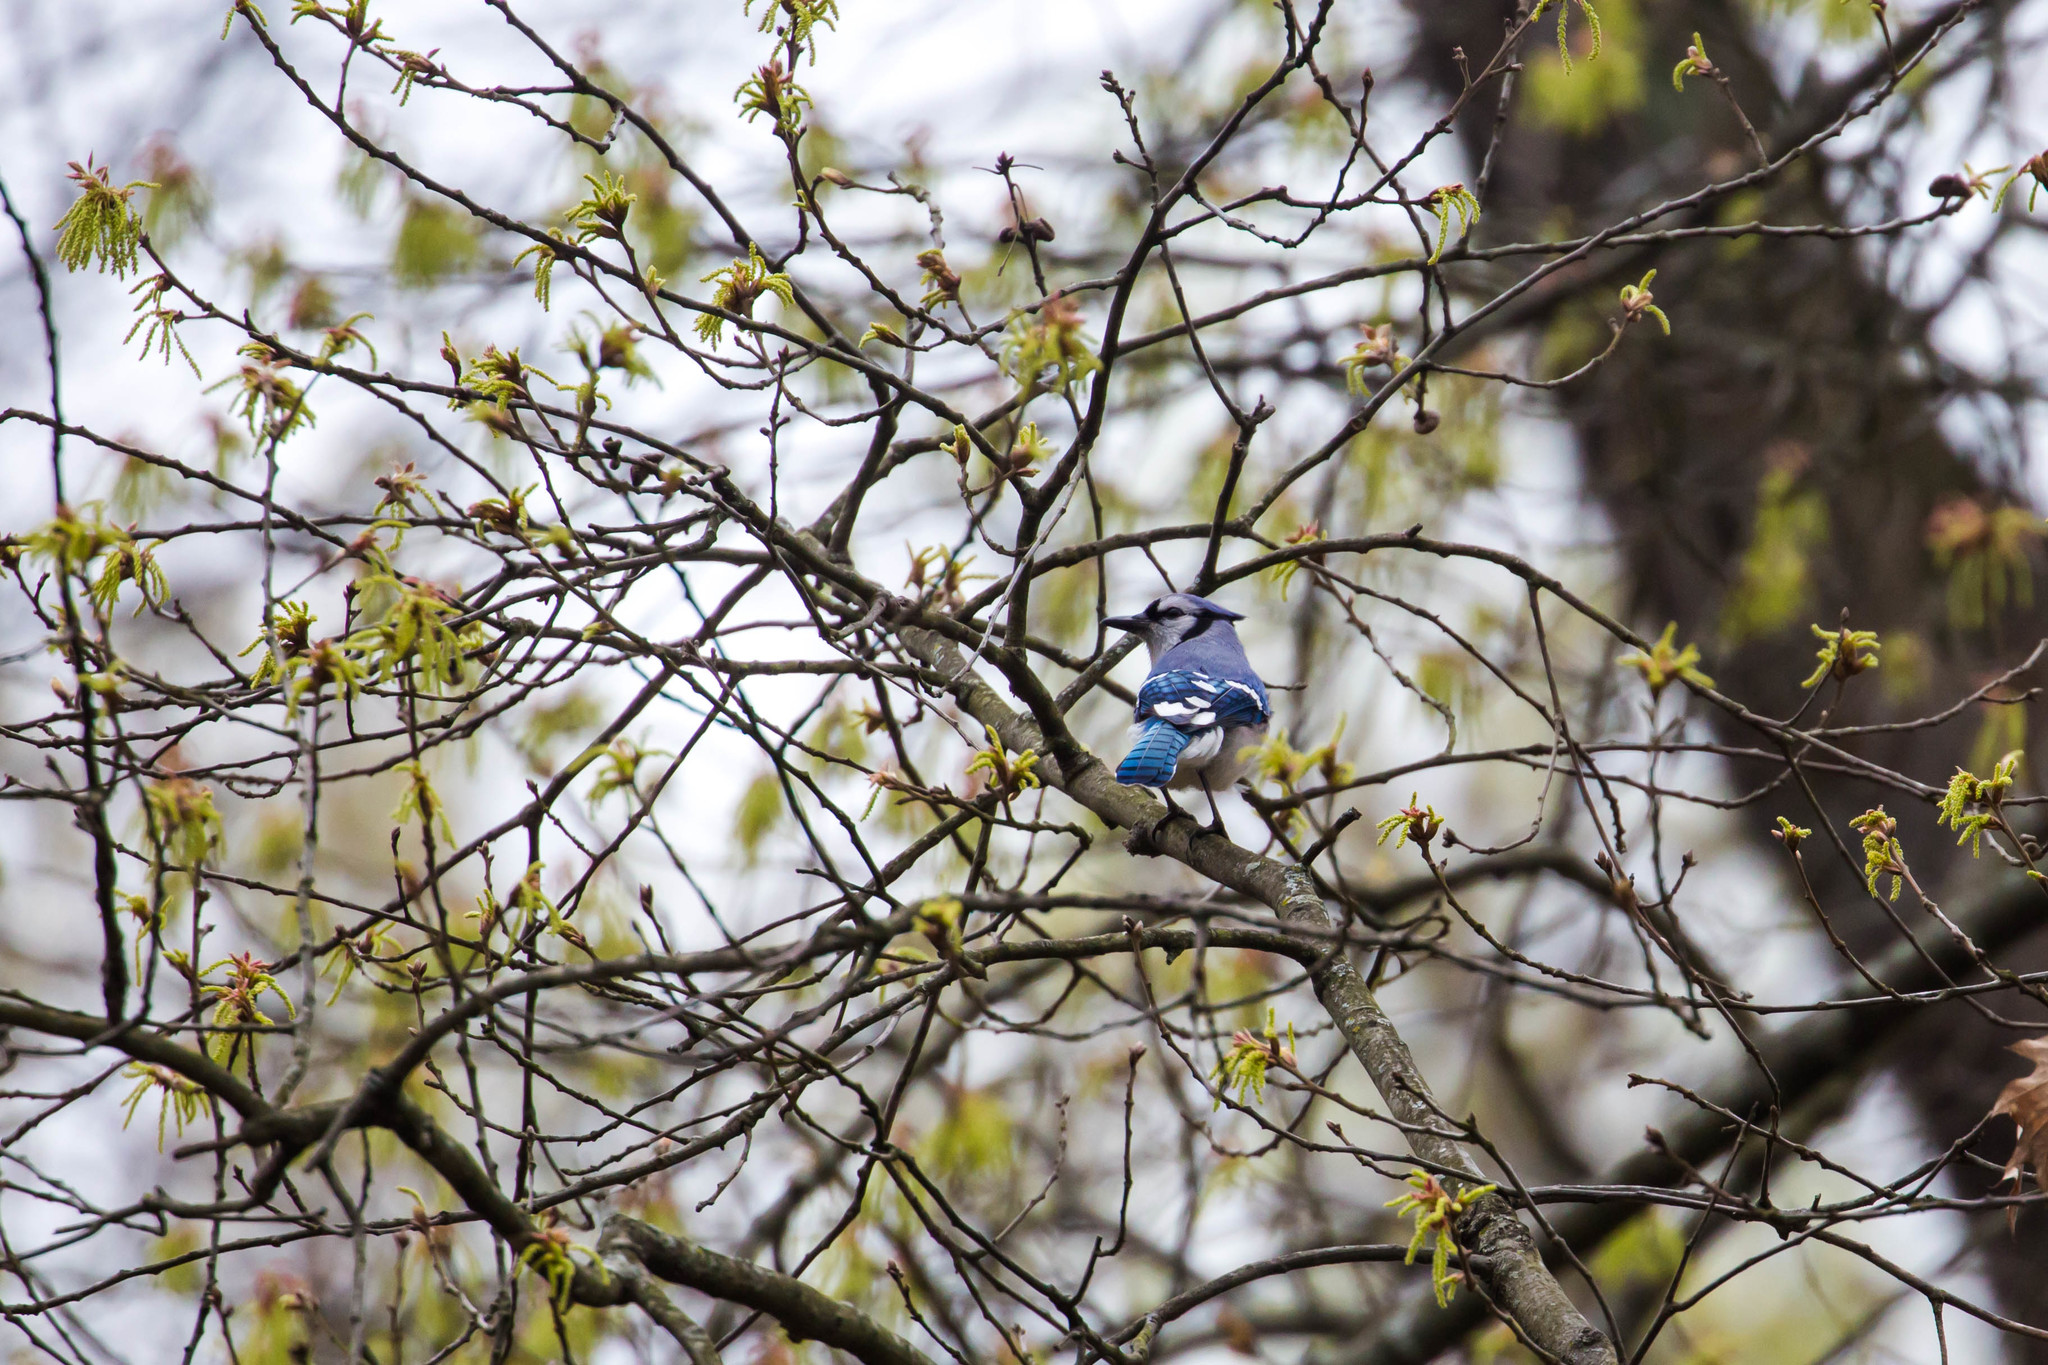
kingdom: Animalia
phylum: Chordata
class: Aves
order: Passeriformes
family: Corvidae
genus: Cyanocitta
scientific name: Cyanocitta cristata
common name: Blue jay
